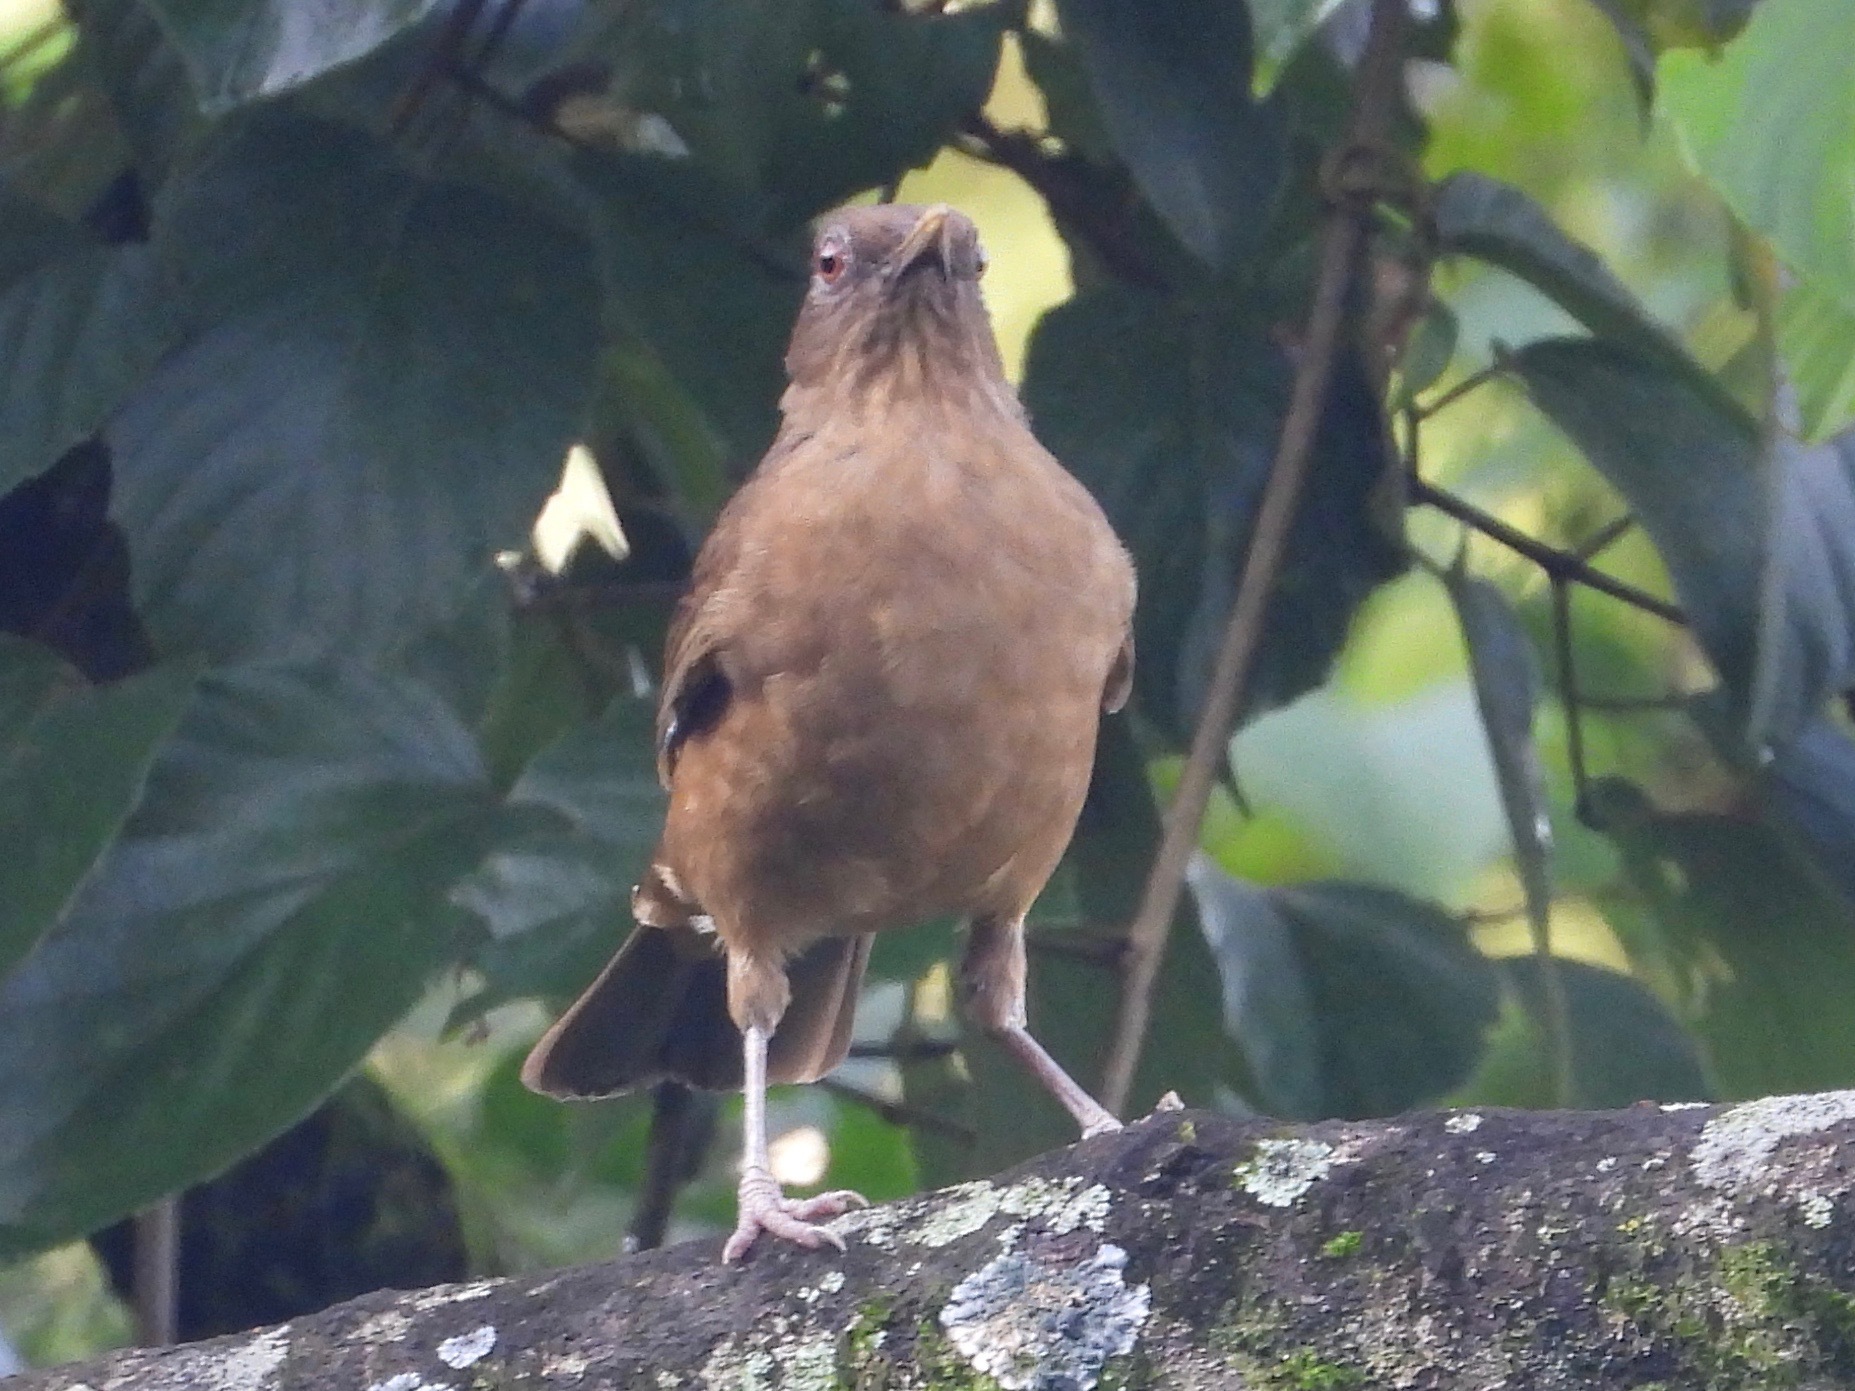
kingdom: Animalia
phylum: Chordata
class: Aves
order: Passeriformes
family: Turdidae
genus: Turdus
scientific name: Turdus grayi
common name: Clay-colored thrush
